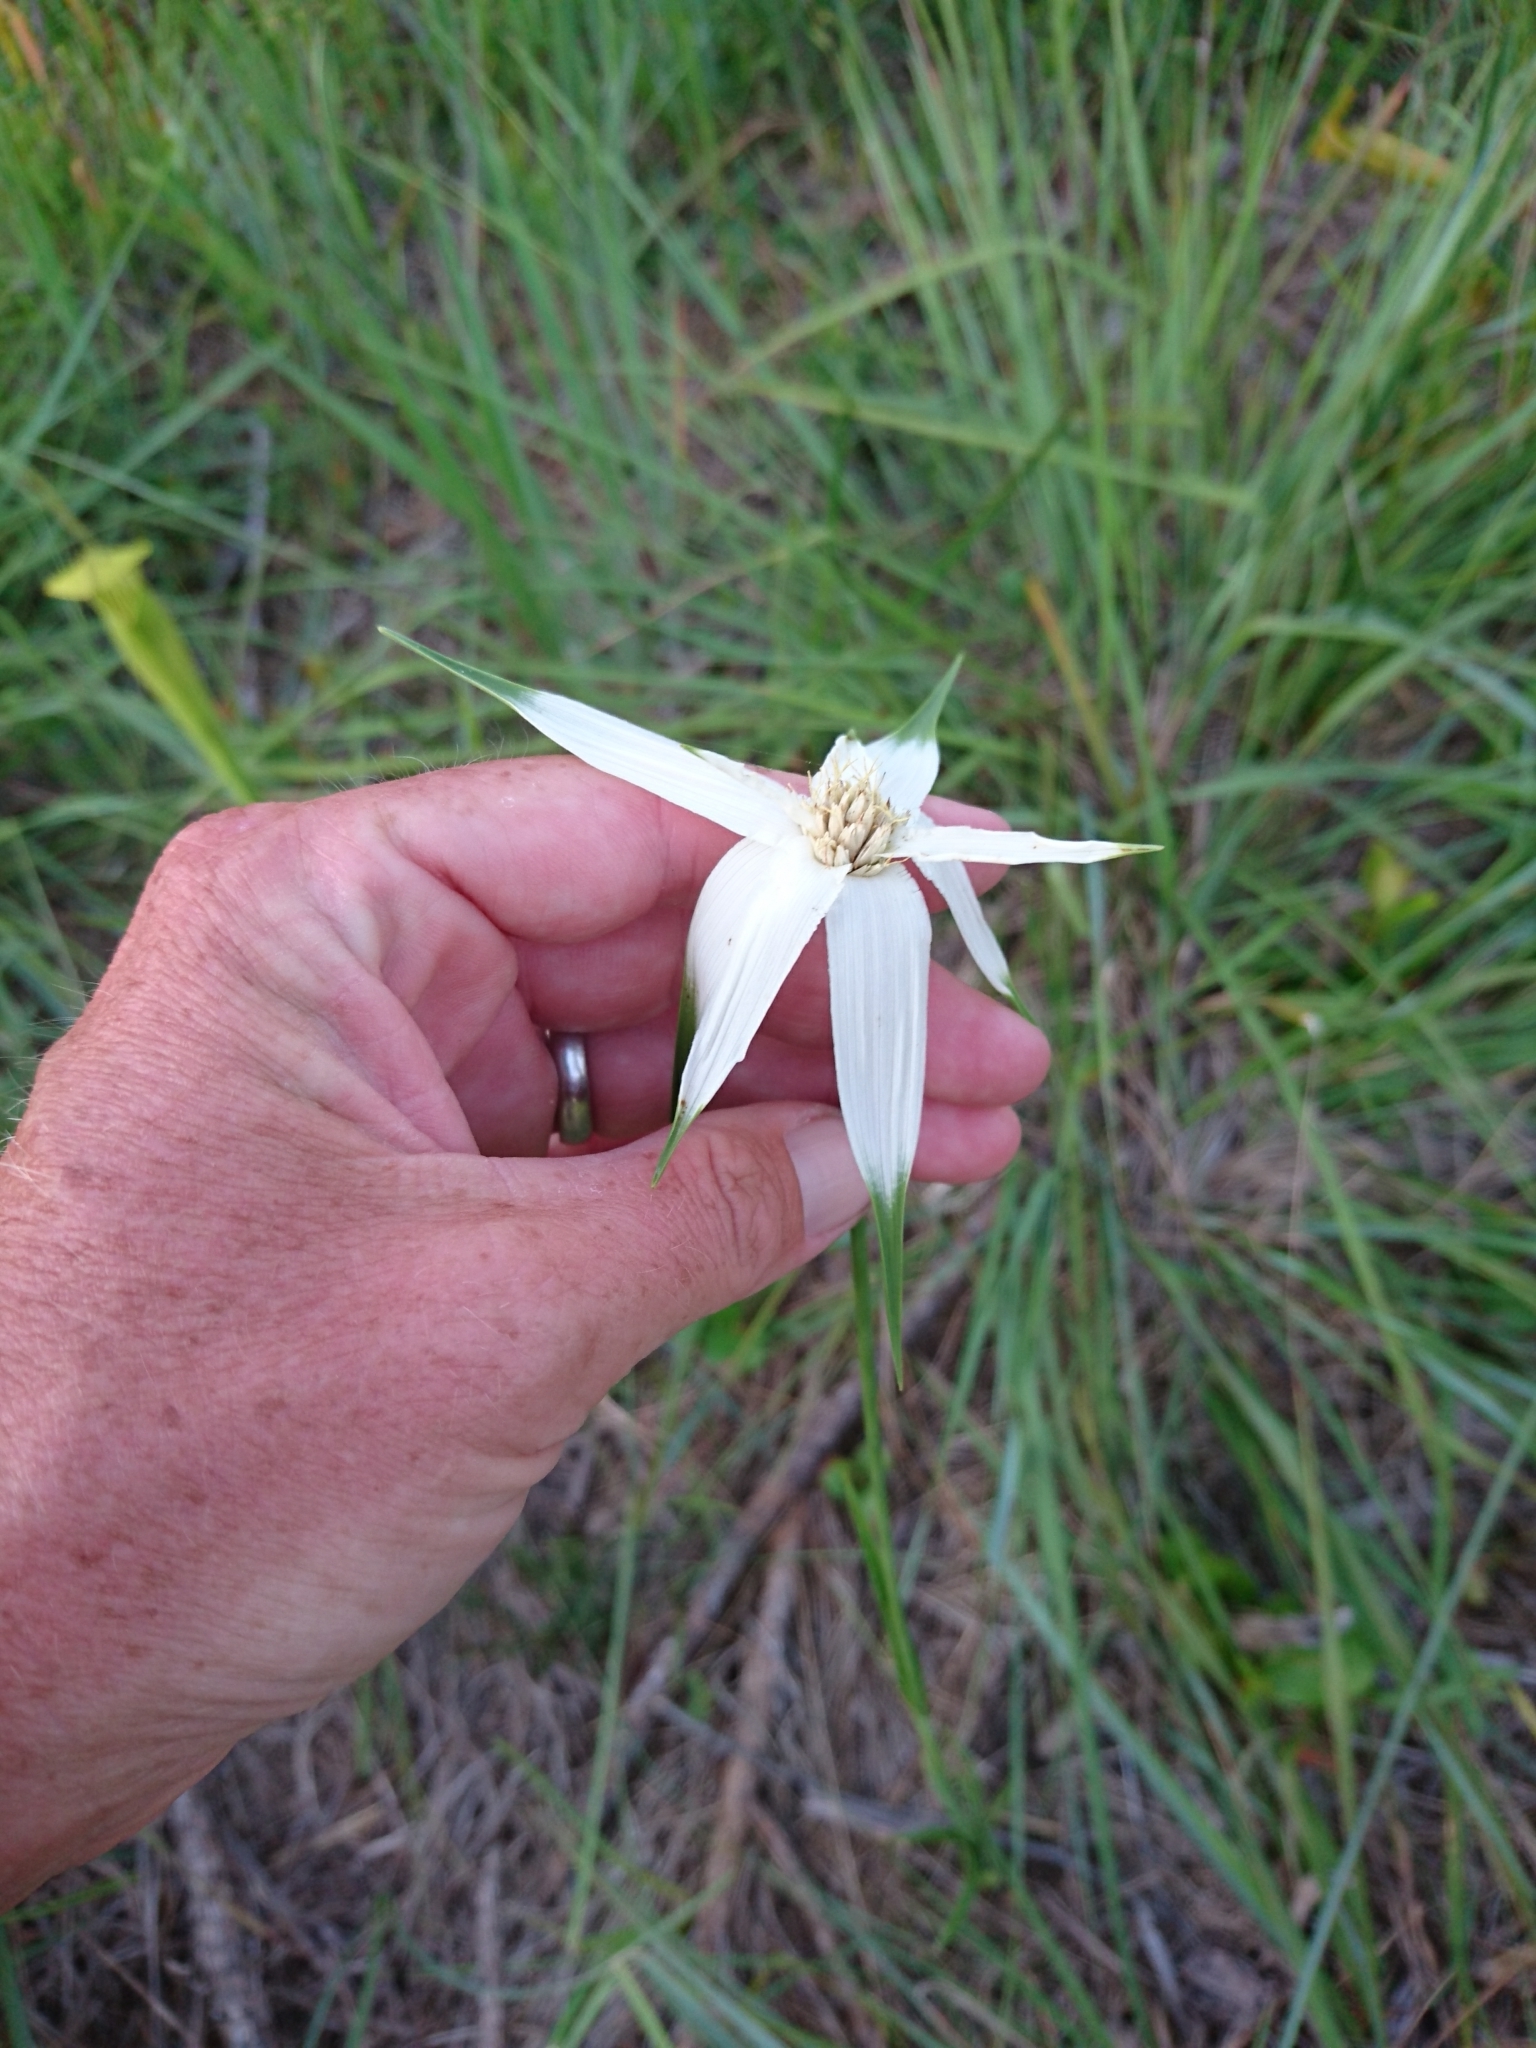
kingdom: Plantae
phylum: Tracheophyta
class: Liliopsida
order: Poales
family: Cyperaceae
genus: Rhynchospora
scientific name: Rhynchospora latifolia
